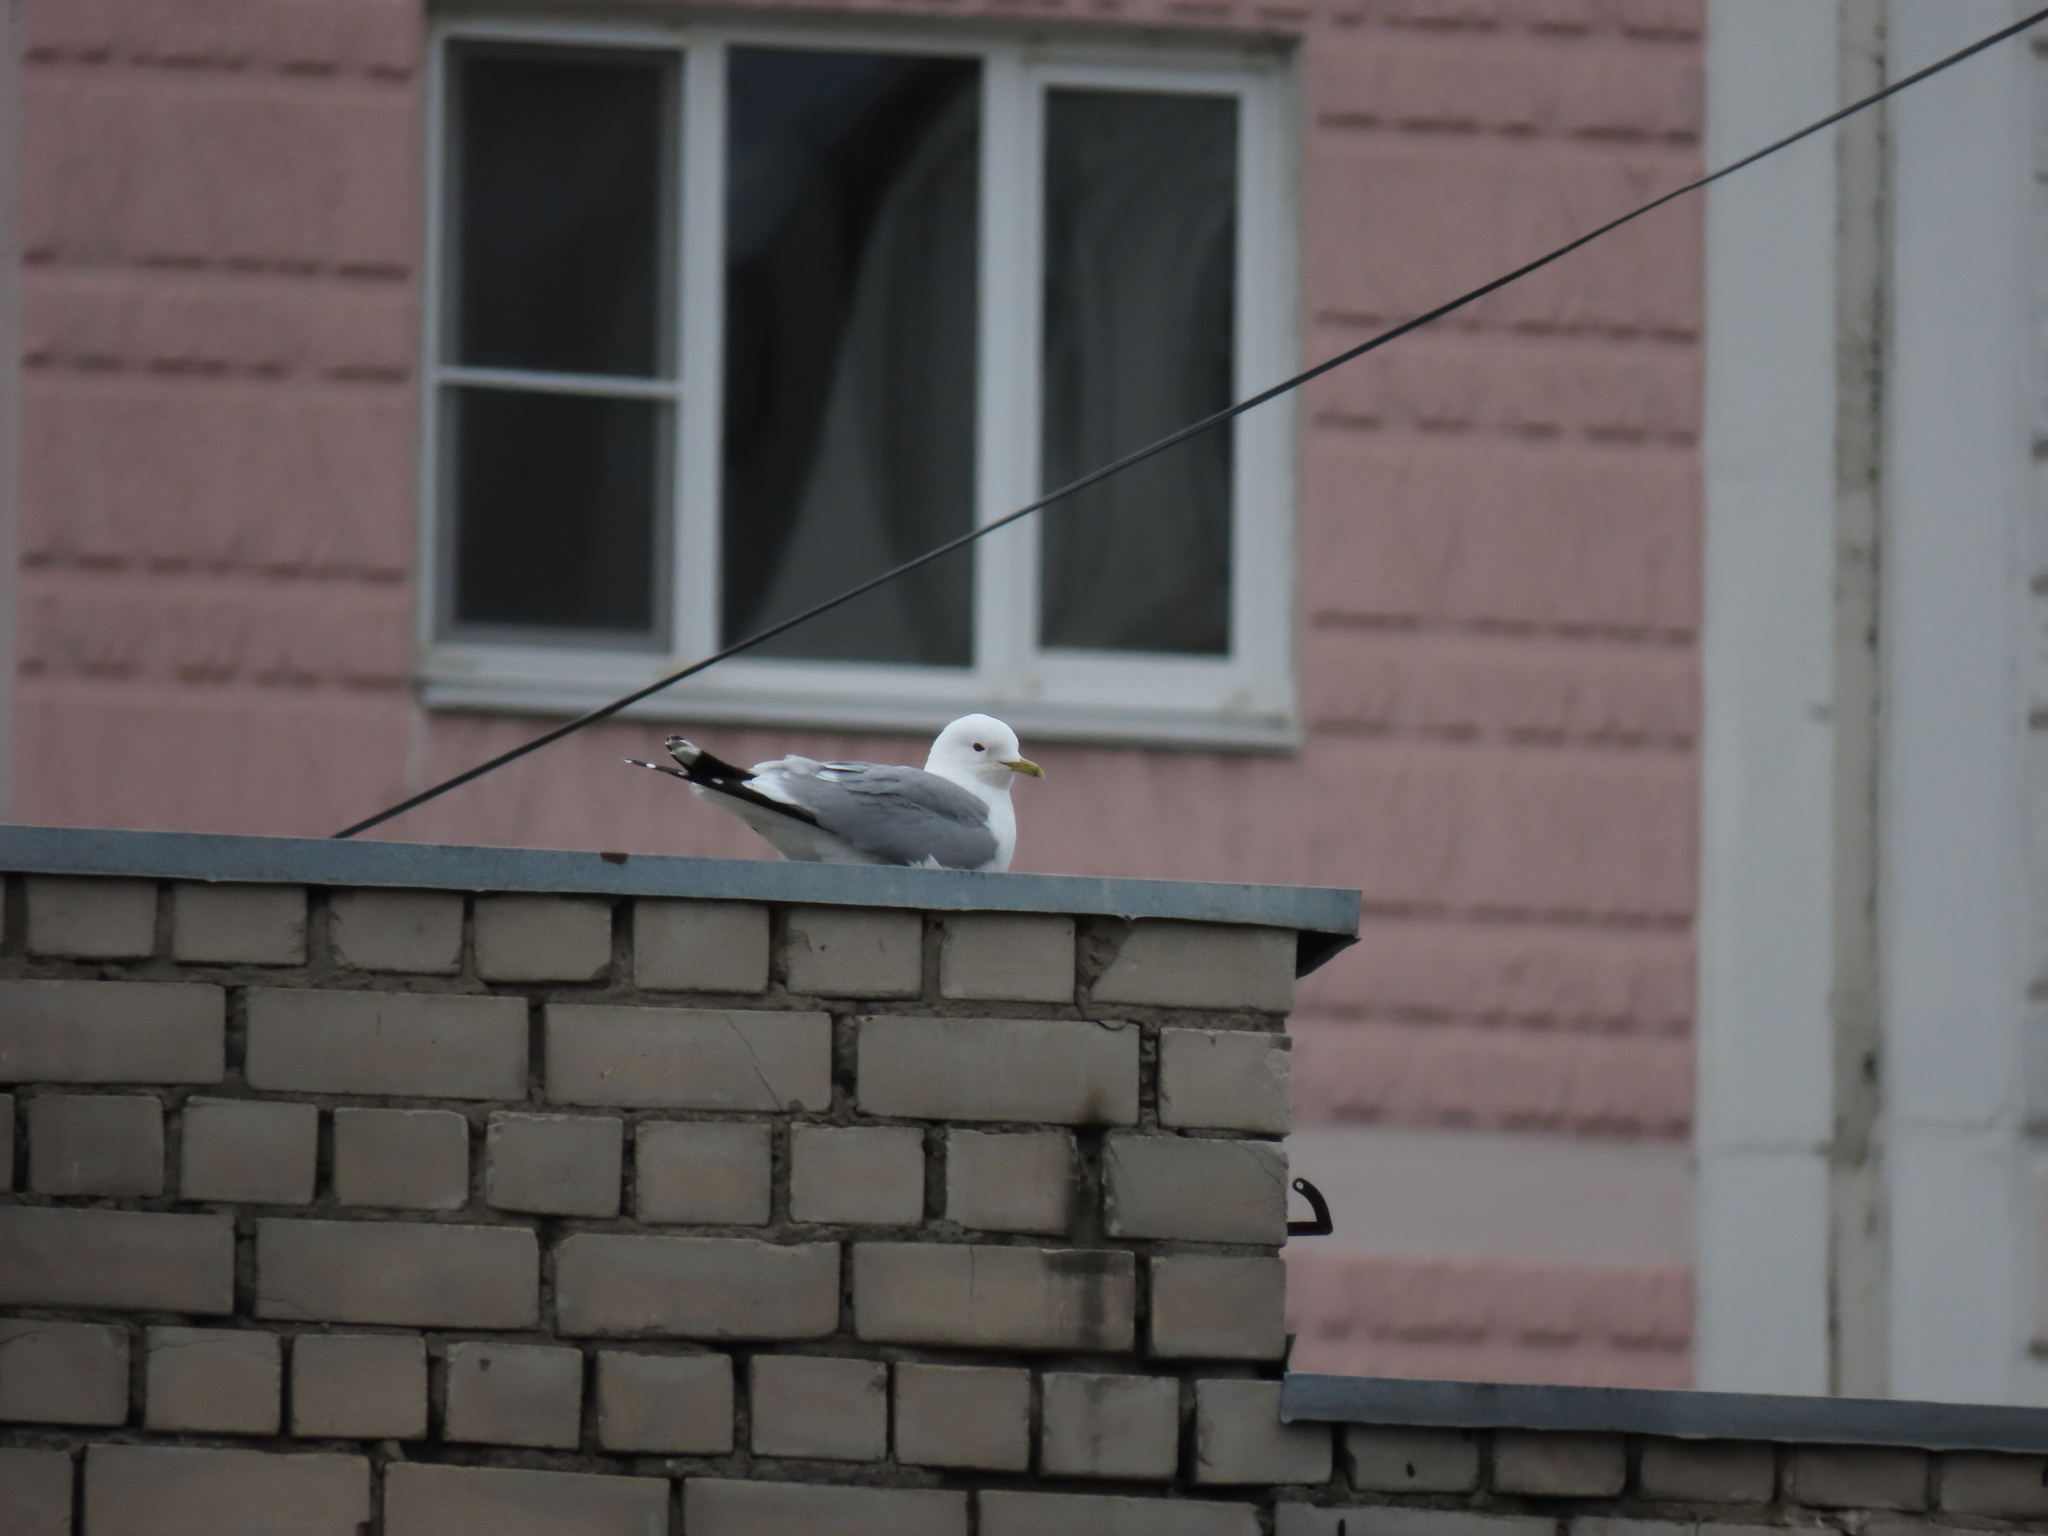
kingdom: Animalia
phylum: Chordata
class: Aves
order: Charadriiformes
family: Laridae
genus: Larus
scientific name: Larus canus
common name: Mew gull
